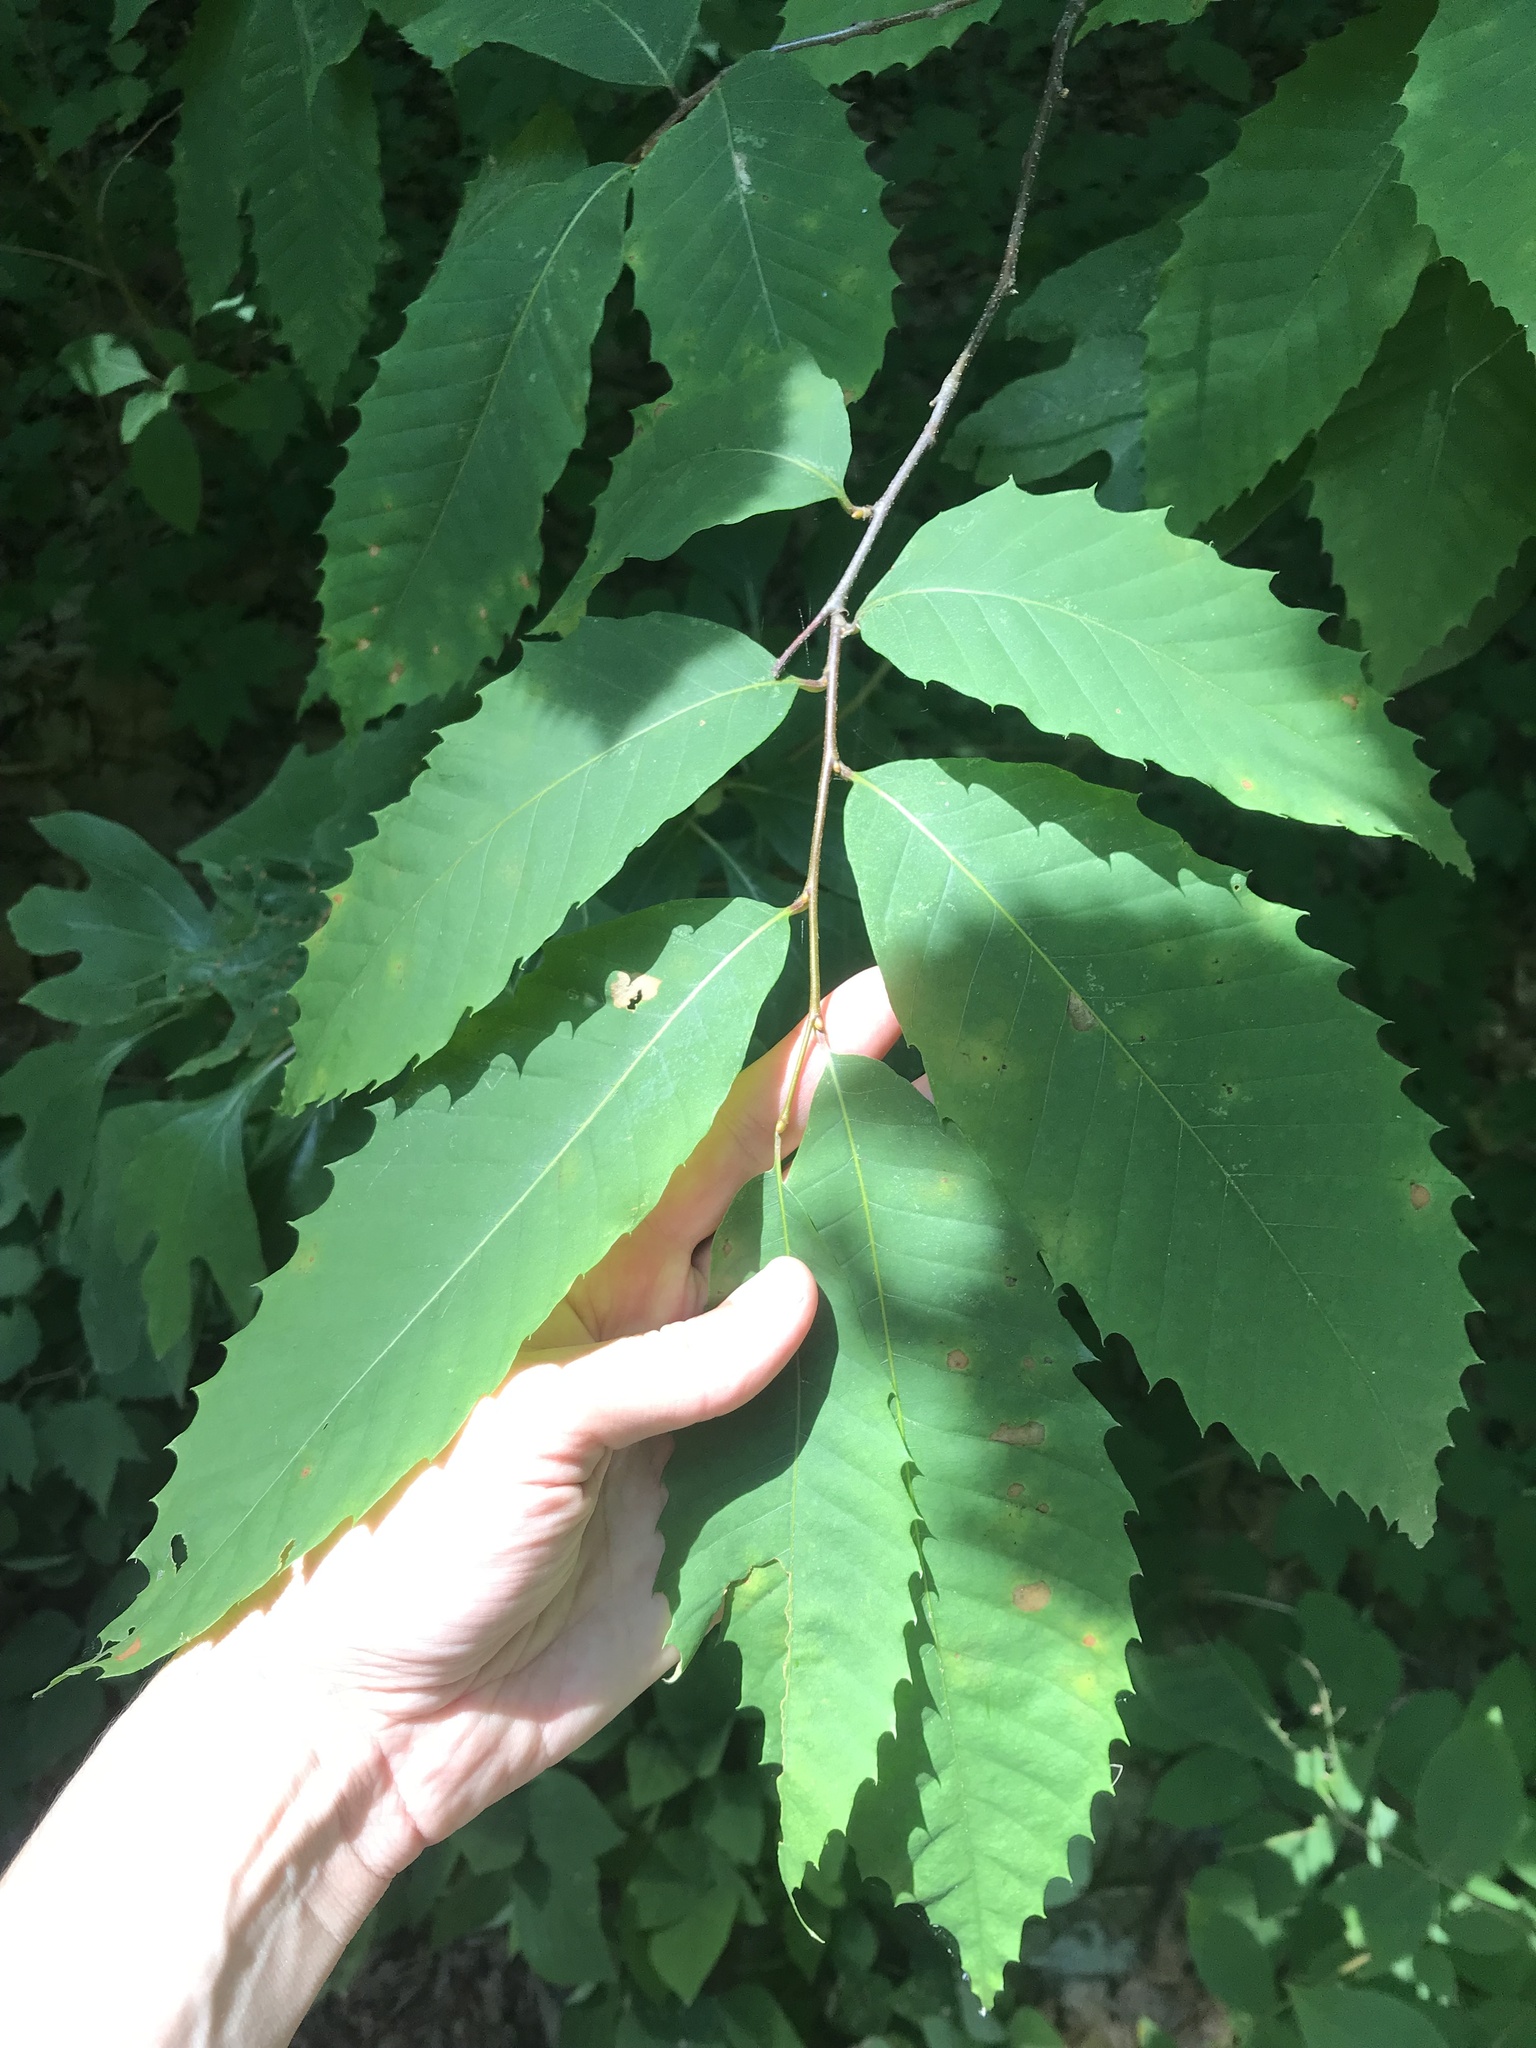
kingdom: Plantae
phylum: Tracheophyta
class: Magnoliopsida
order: Fagales
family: Fagaceae
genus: Castanea
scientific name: Castanea dentata
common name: American chestnut
